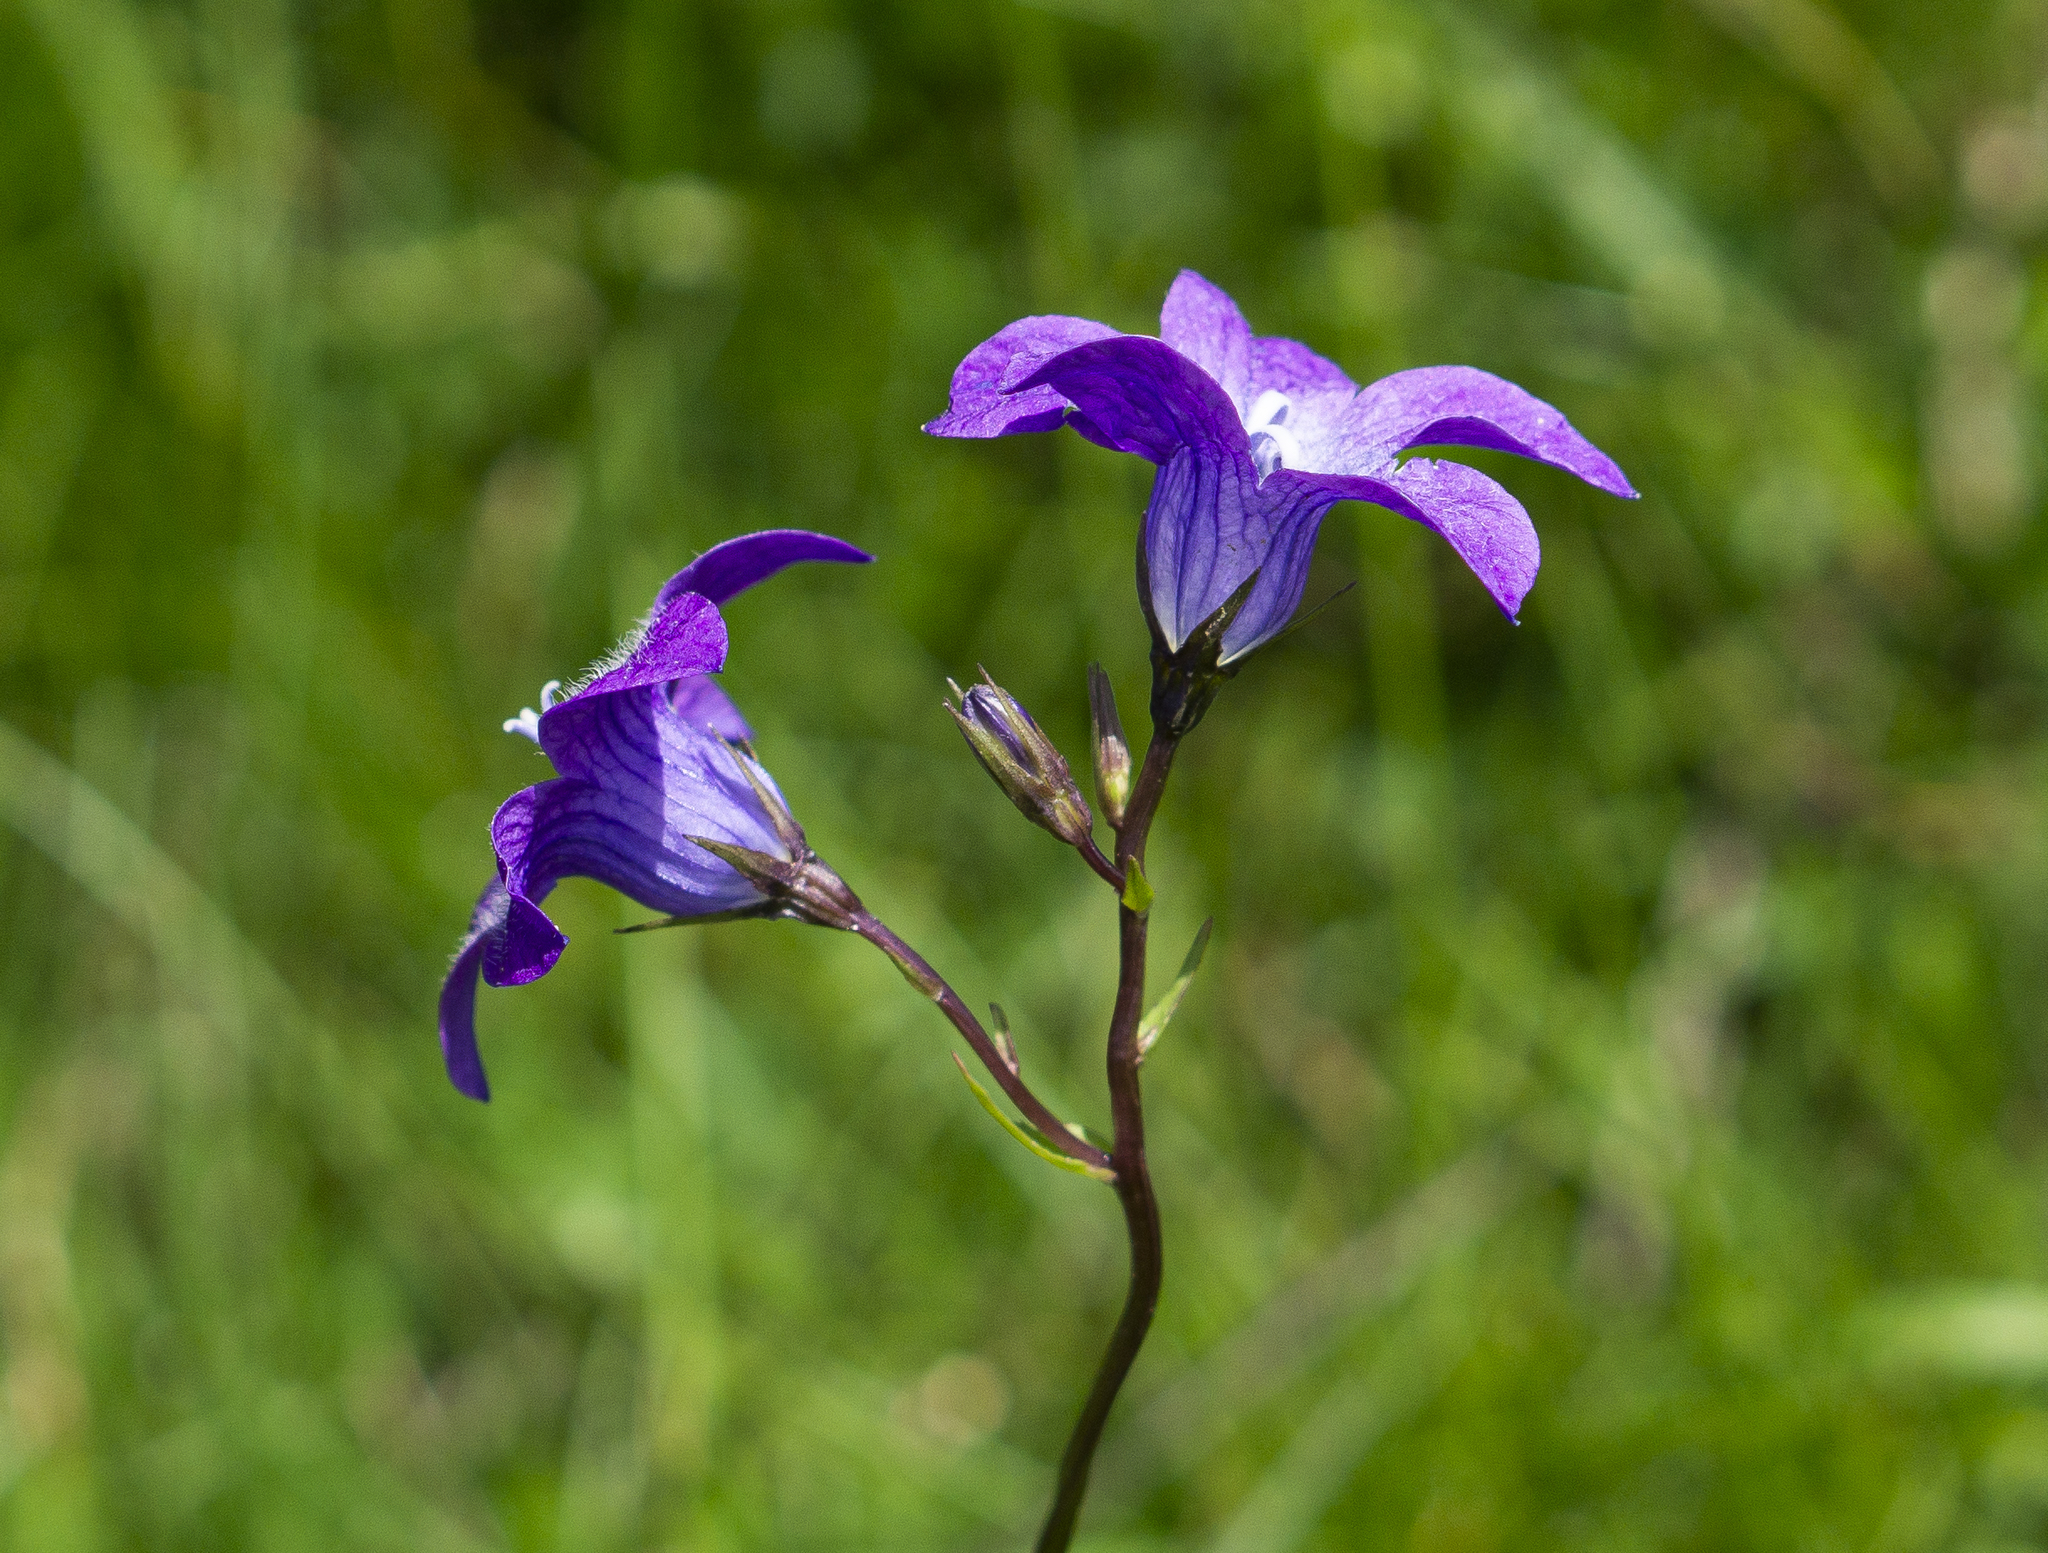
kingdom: Plantae
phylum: Tracheophyta
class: Magnoliopsida
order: Asterales
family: Campanulaceae
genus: Campanula
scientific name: Campanula patula
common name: Spreading bellflower
